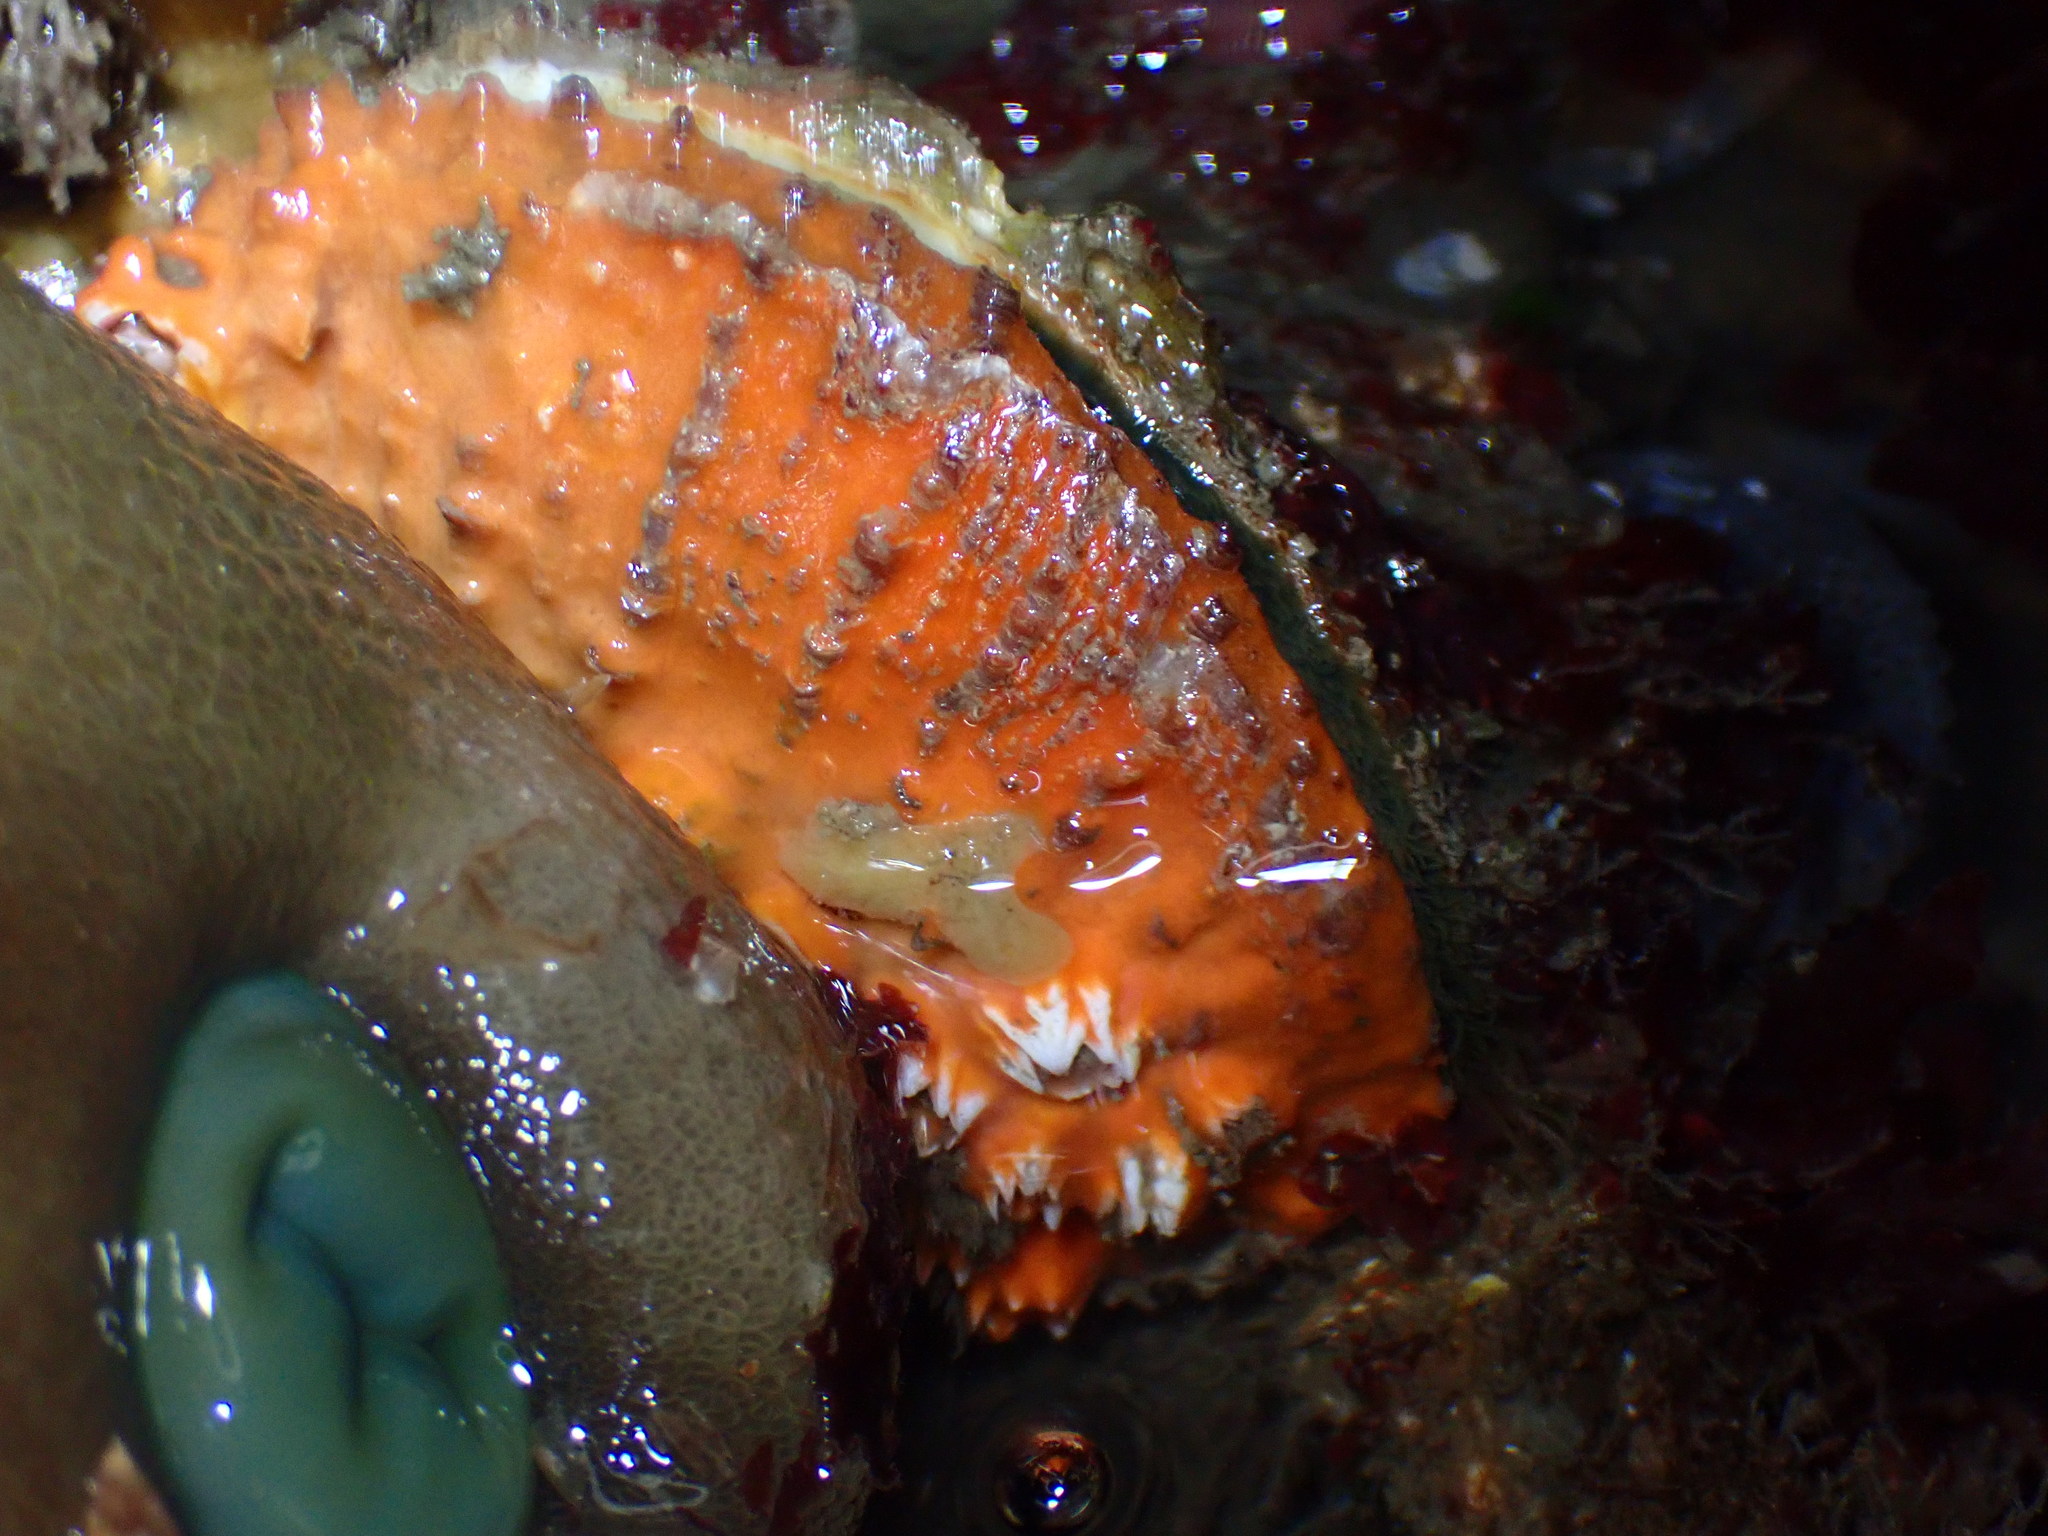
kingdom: Animalia
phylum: Mollusca
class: Bivalvia
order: Pectinida
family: Pectinidae
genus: Crassadoma
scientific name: Crassadoma gigantea
